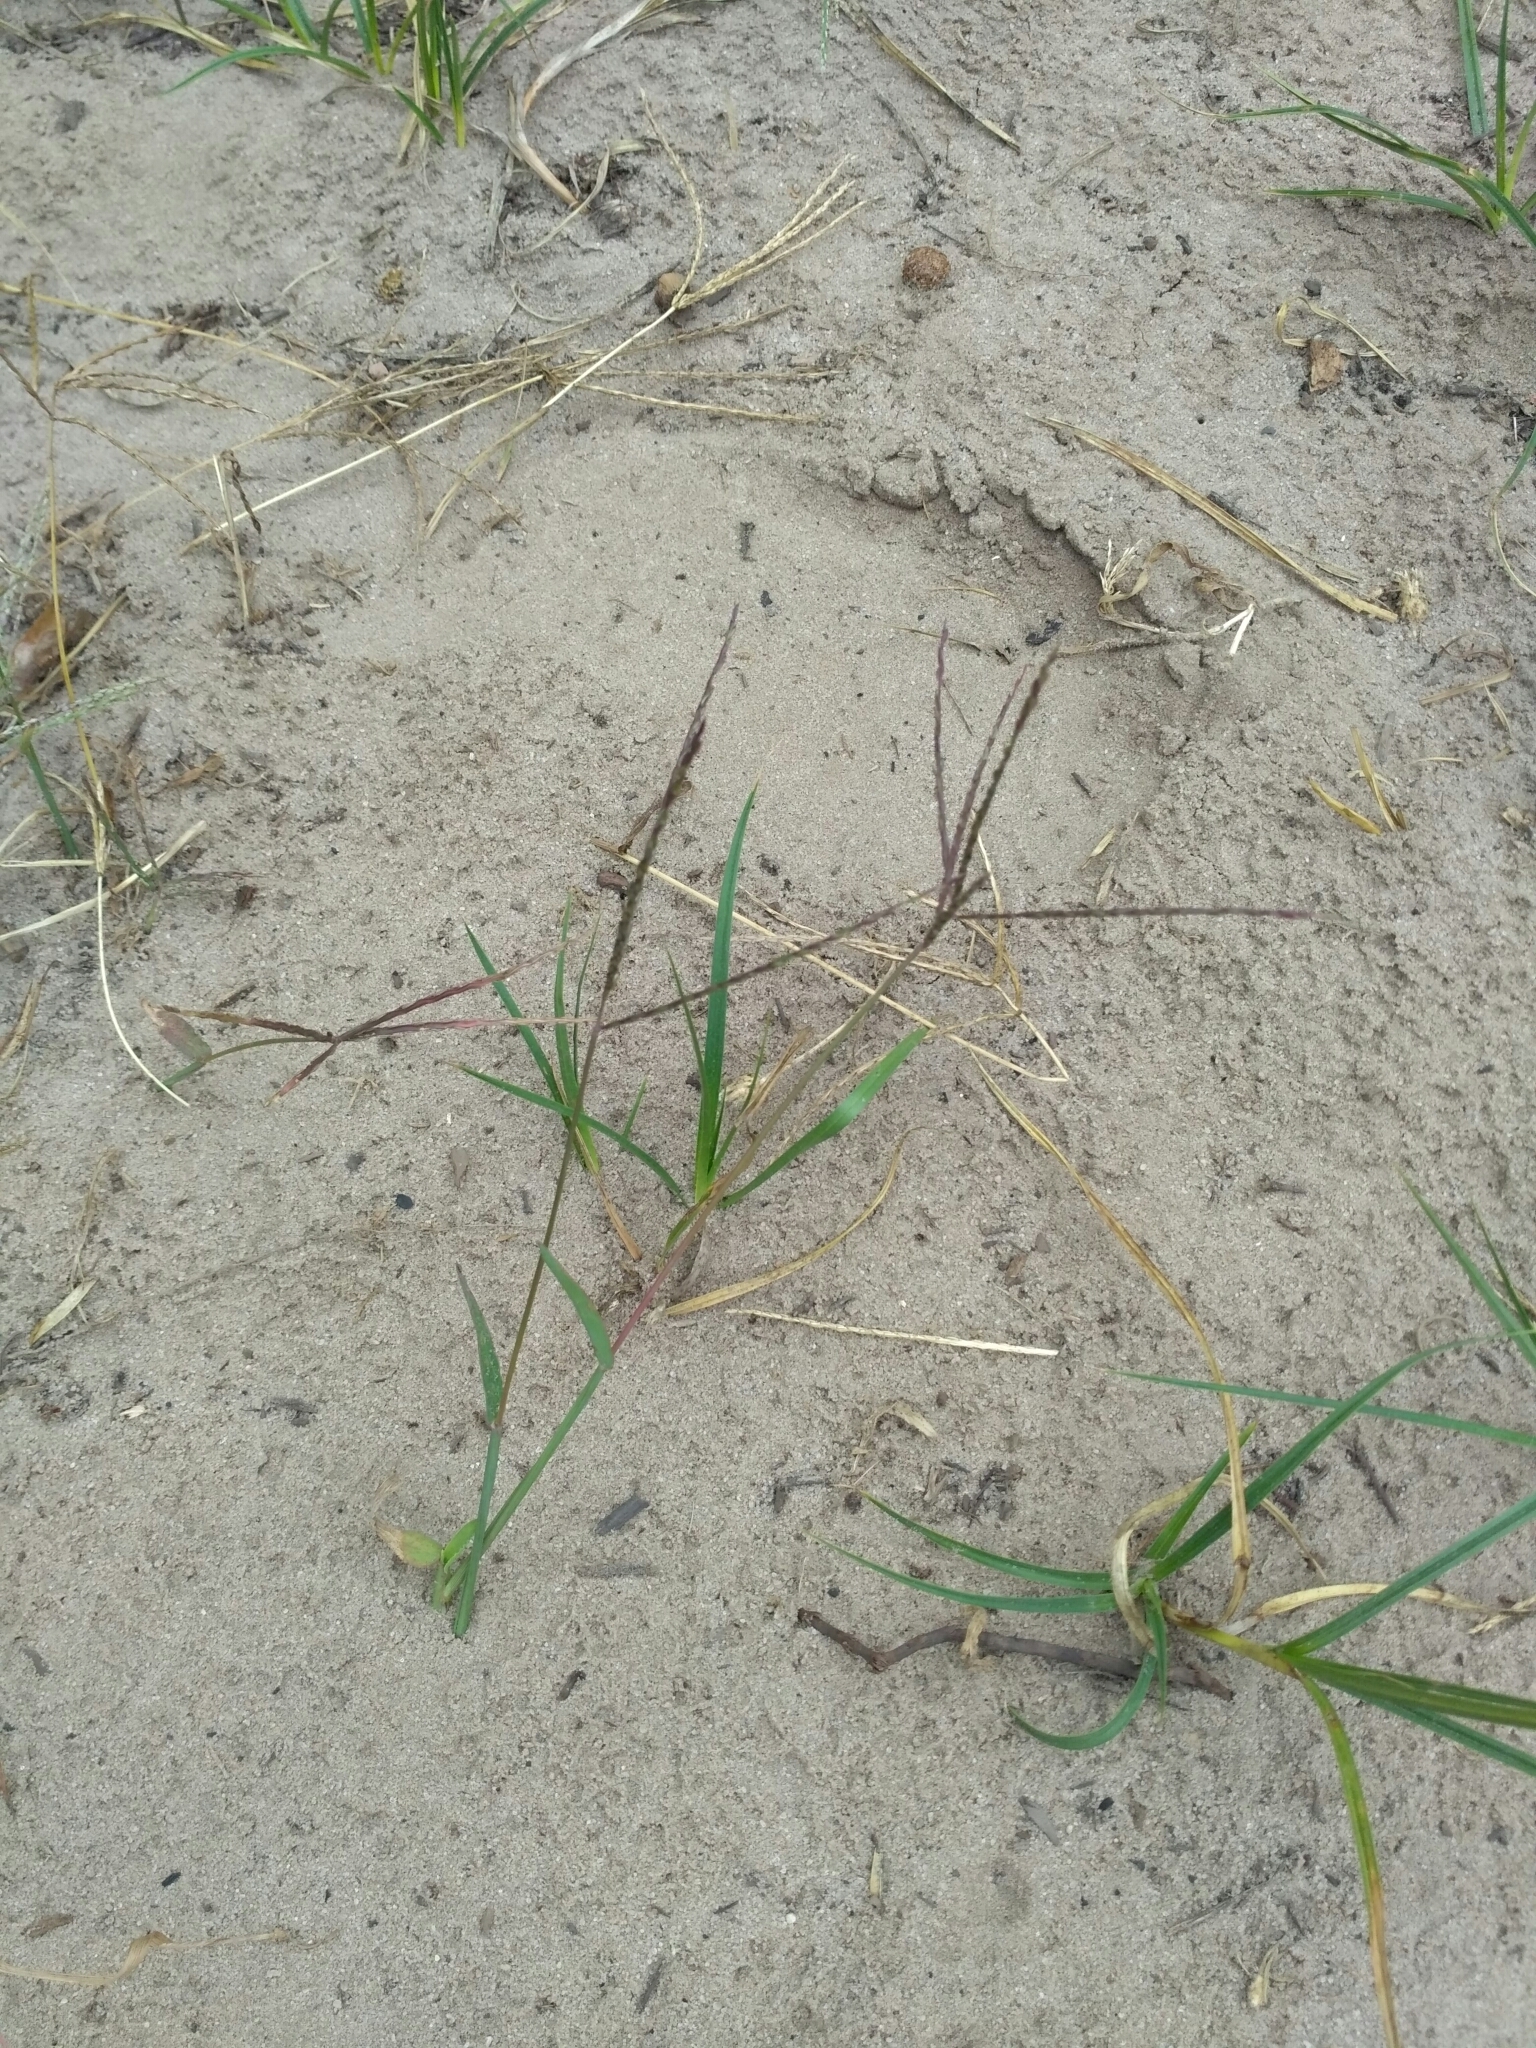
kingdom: Plantae
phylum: Tracheophyta
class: Liliopsida
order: Poales
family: Poaceae
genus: Digitaria
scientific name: Digitaria sanguinalis
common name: Hairy crabgrass
